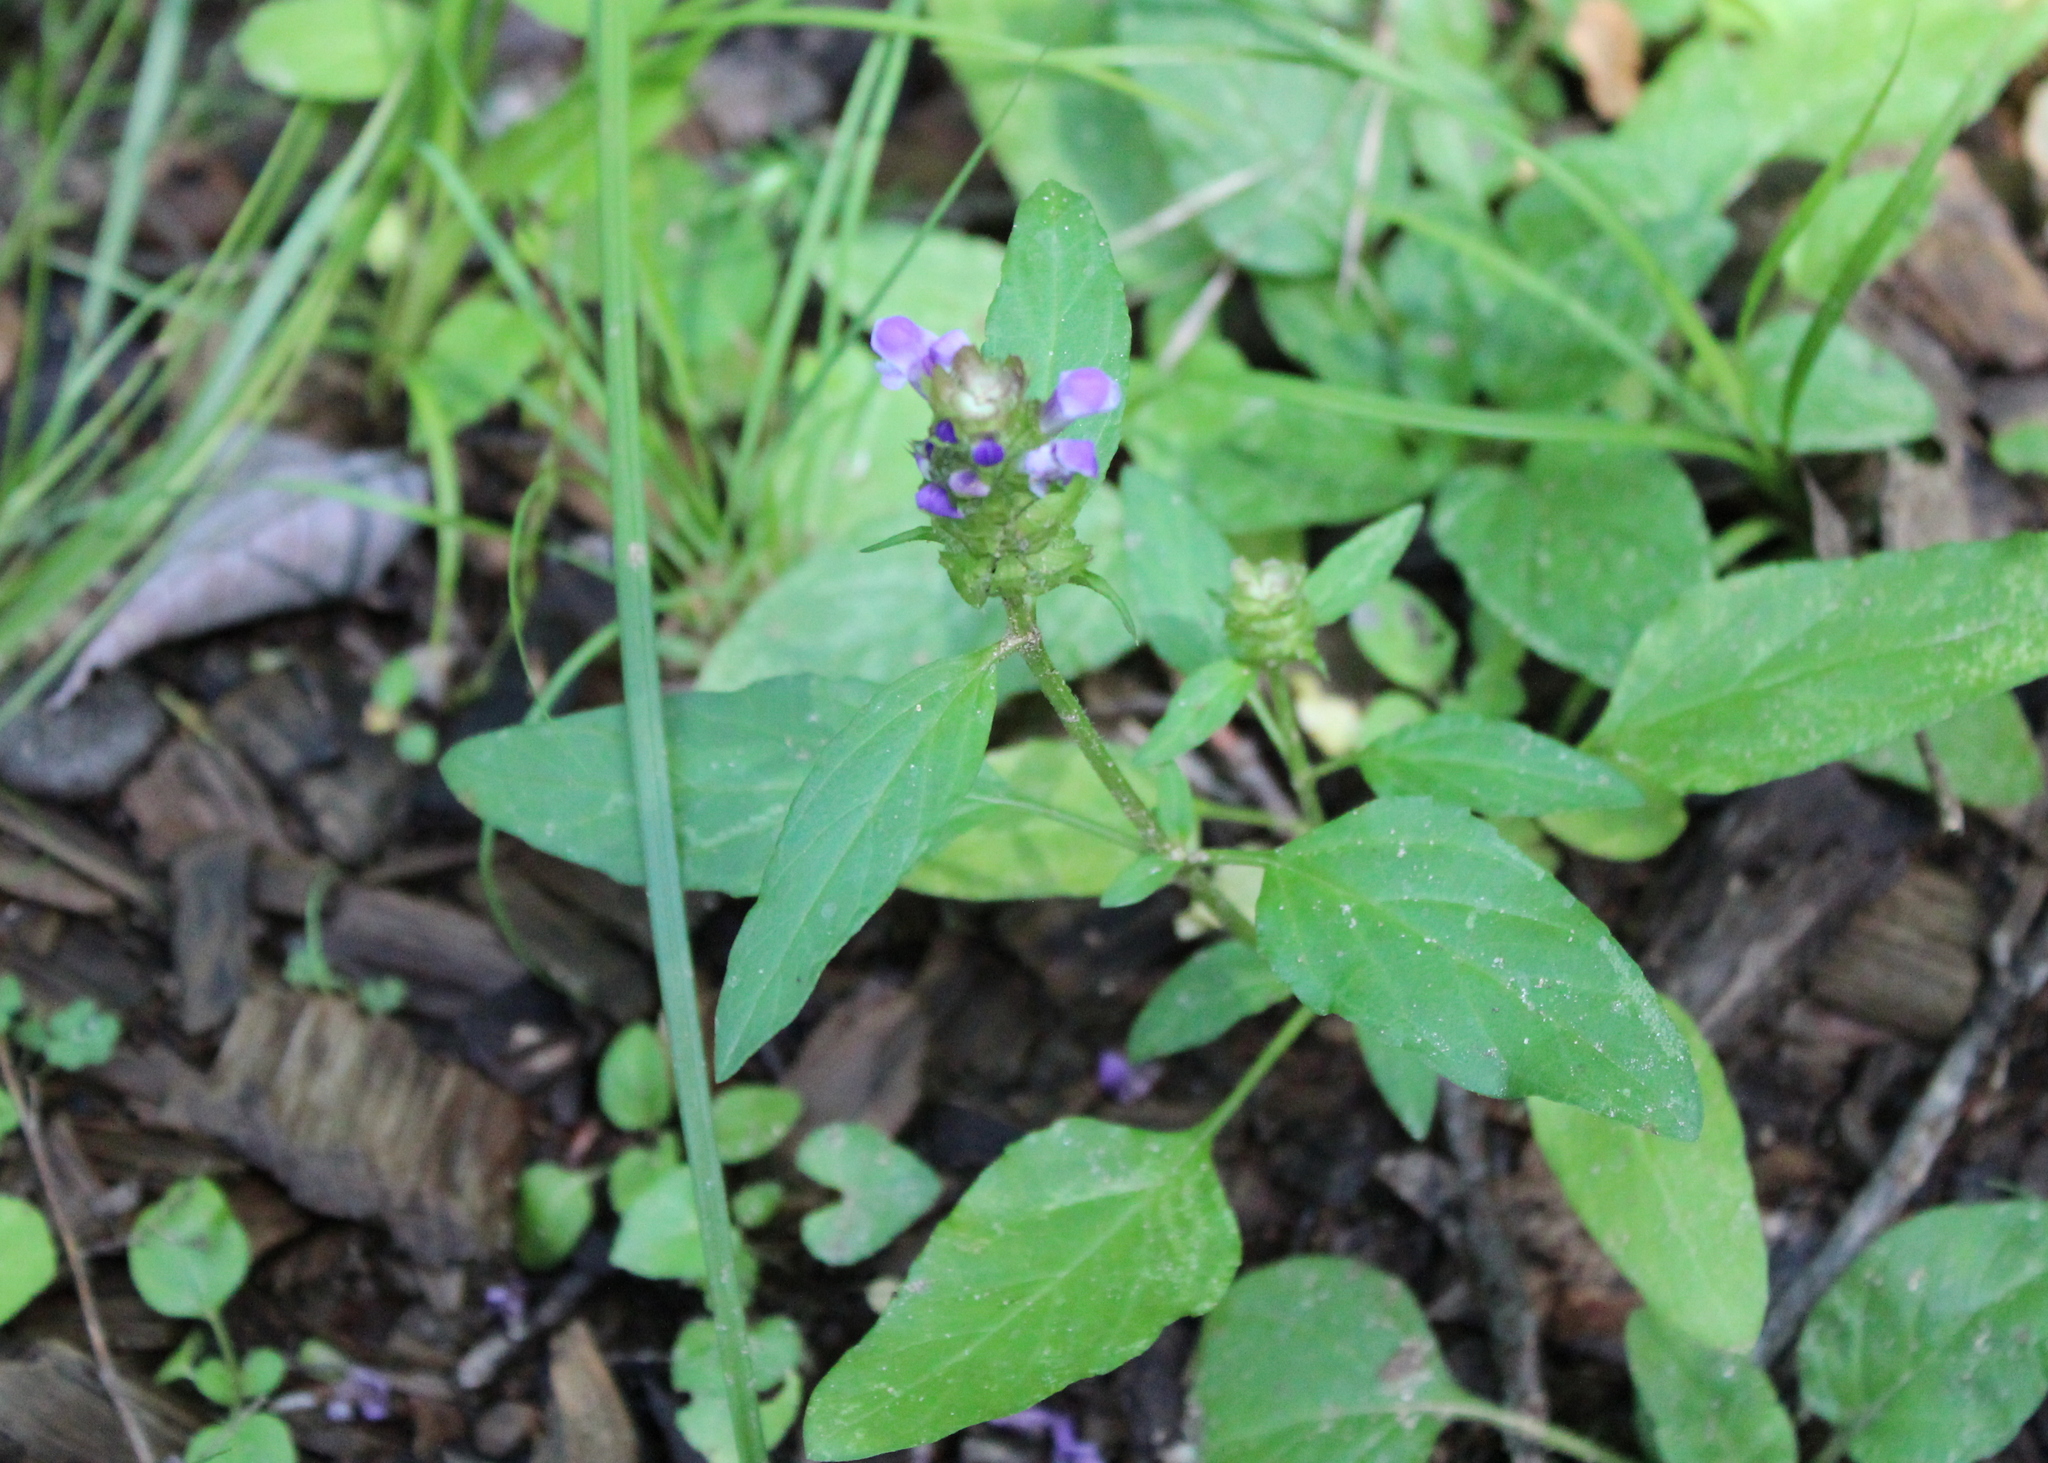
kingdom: Plantae
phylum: Tracheophyta
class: Magnoliopsida
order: Lamiales
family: Lamiaceae
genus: Prunella
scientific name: Prunella vulgaris
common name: Heal-all
